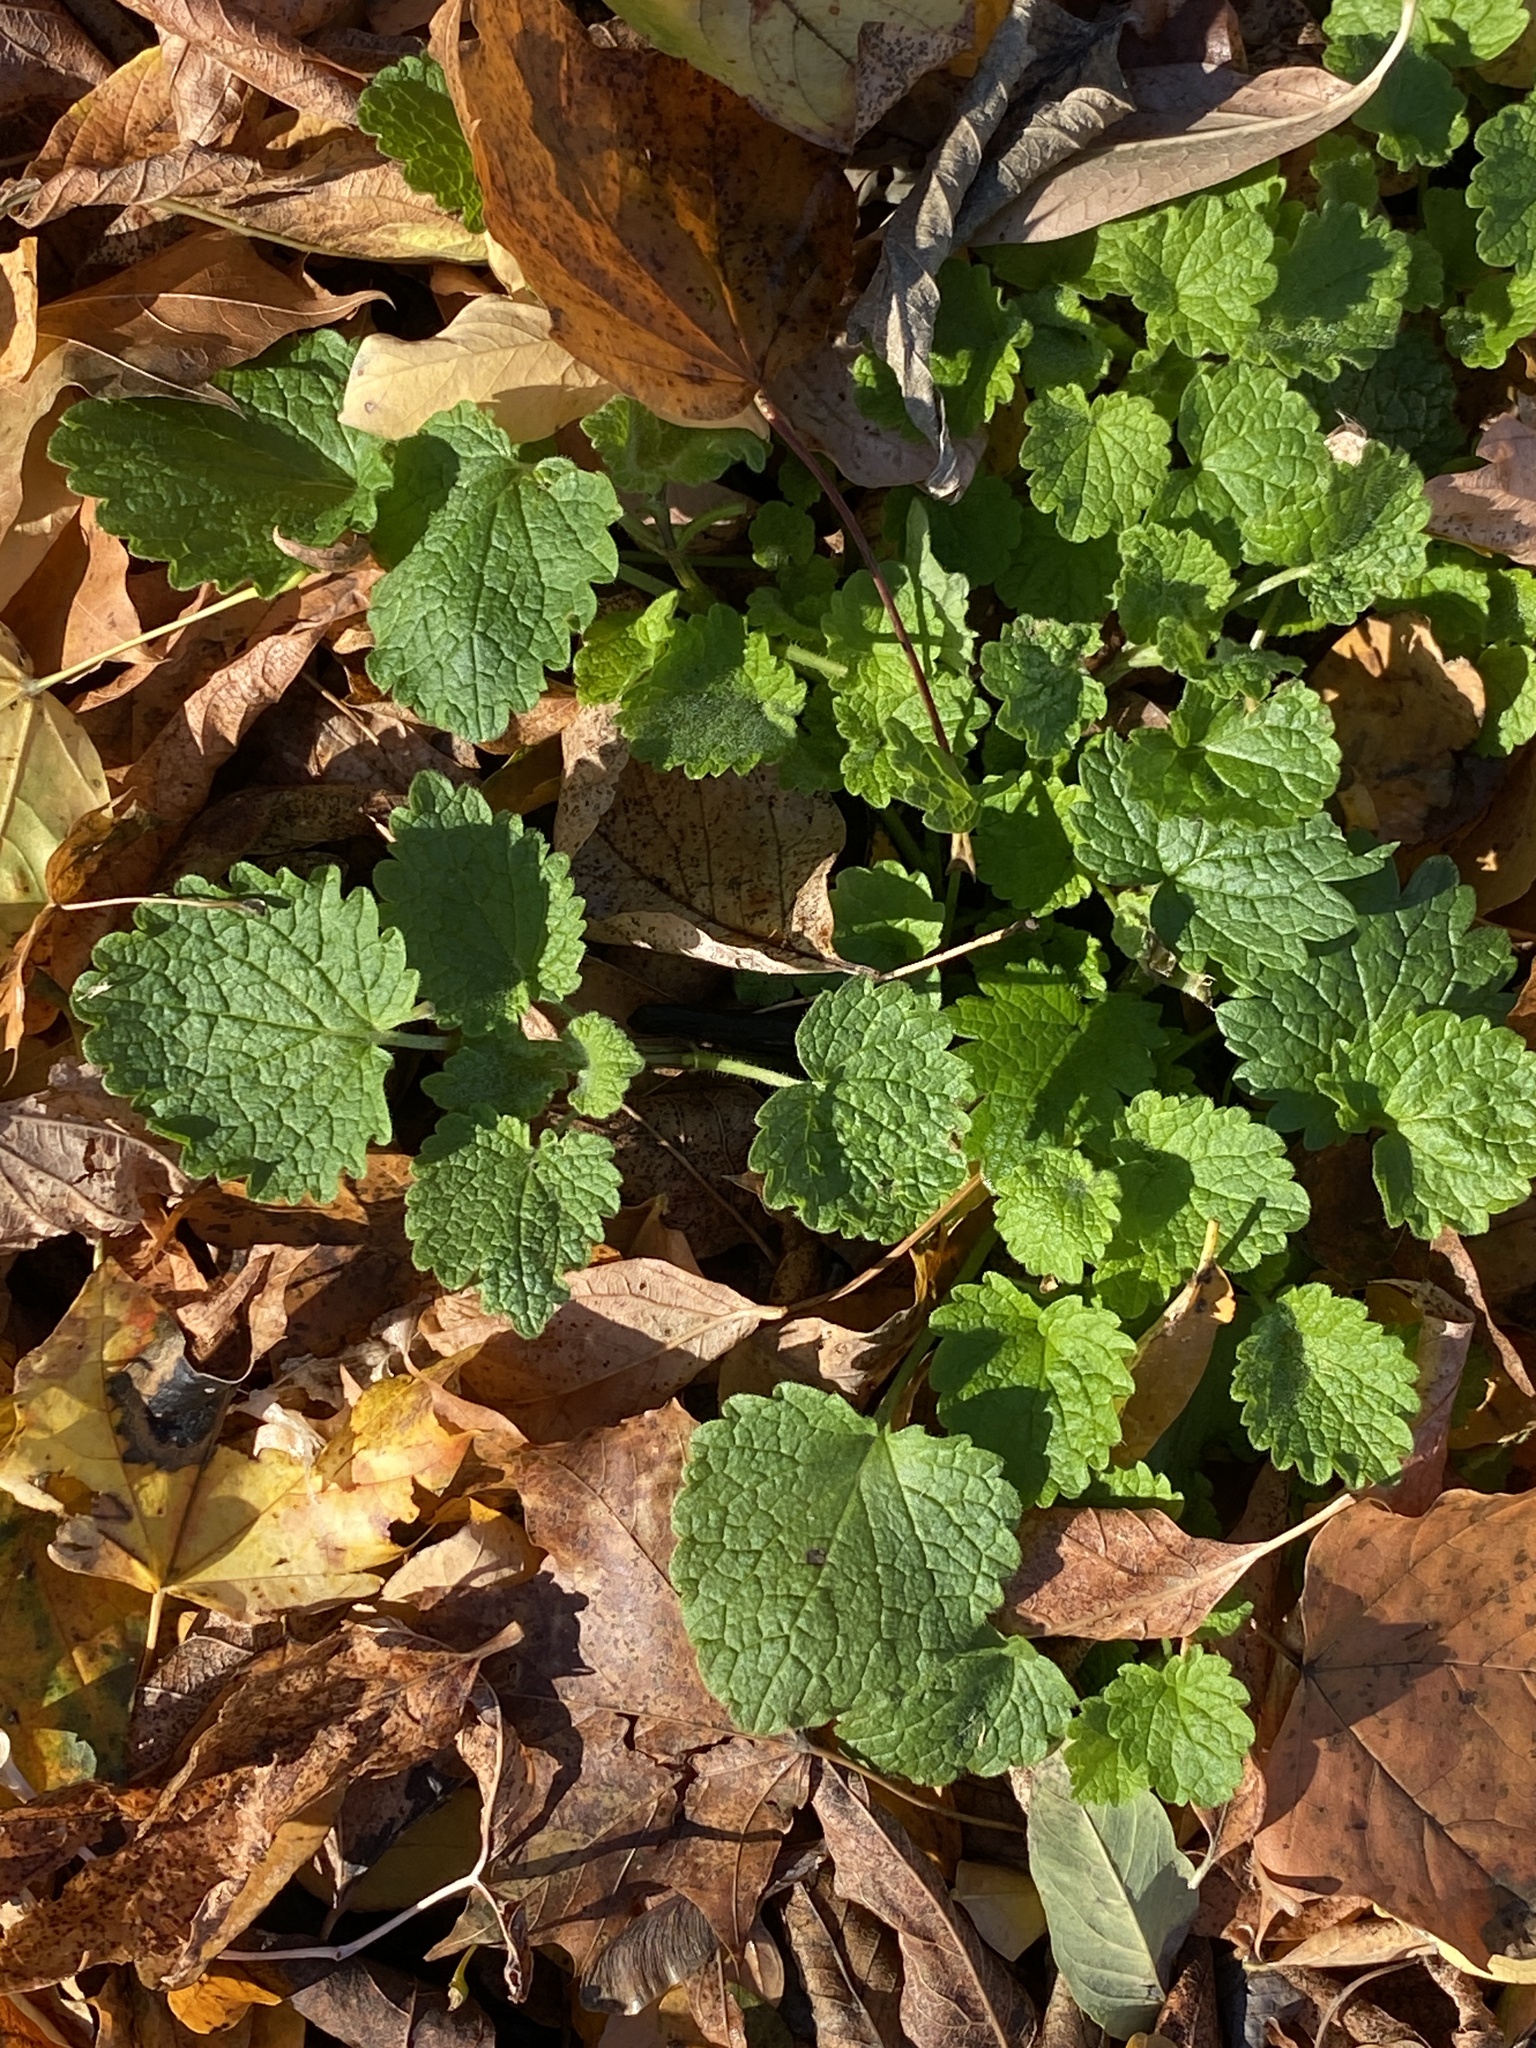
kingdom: Plantae
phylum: Tracheophyta
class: Magnoliopsida
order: Lamiales
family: Lamiaceae
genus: Lamium
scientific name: Lamium purpureum
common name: Red dead-nettle
